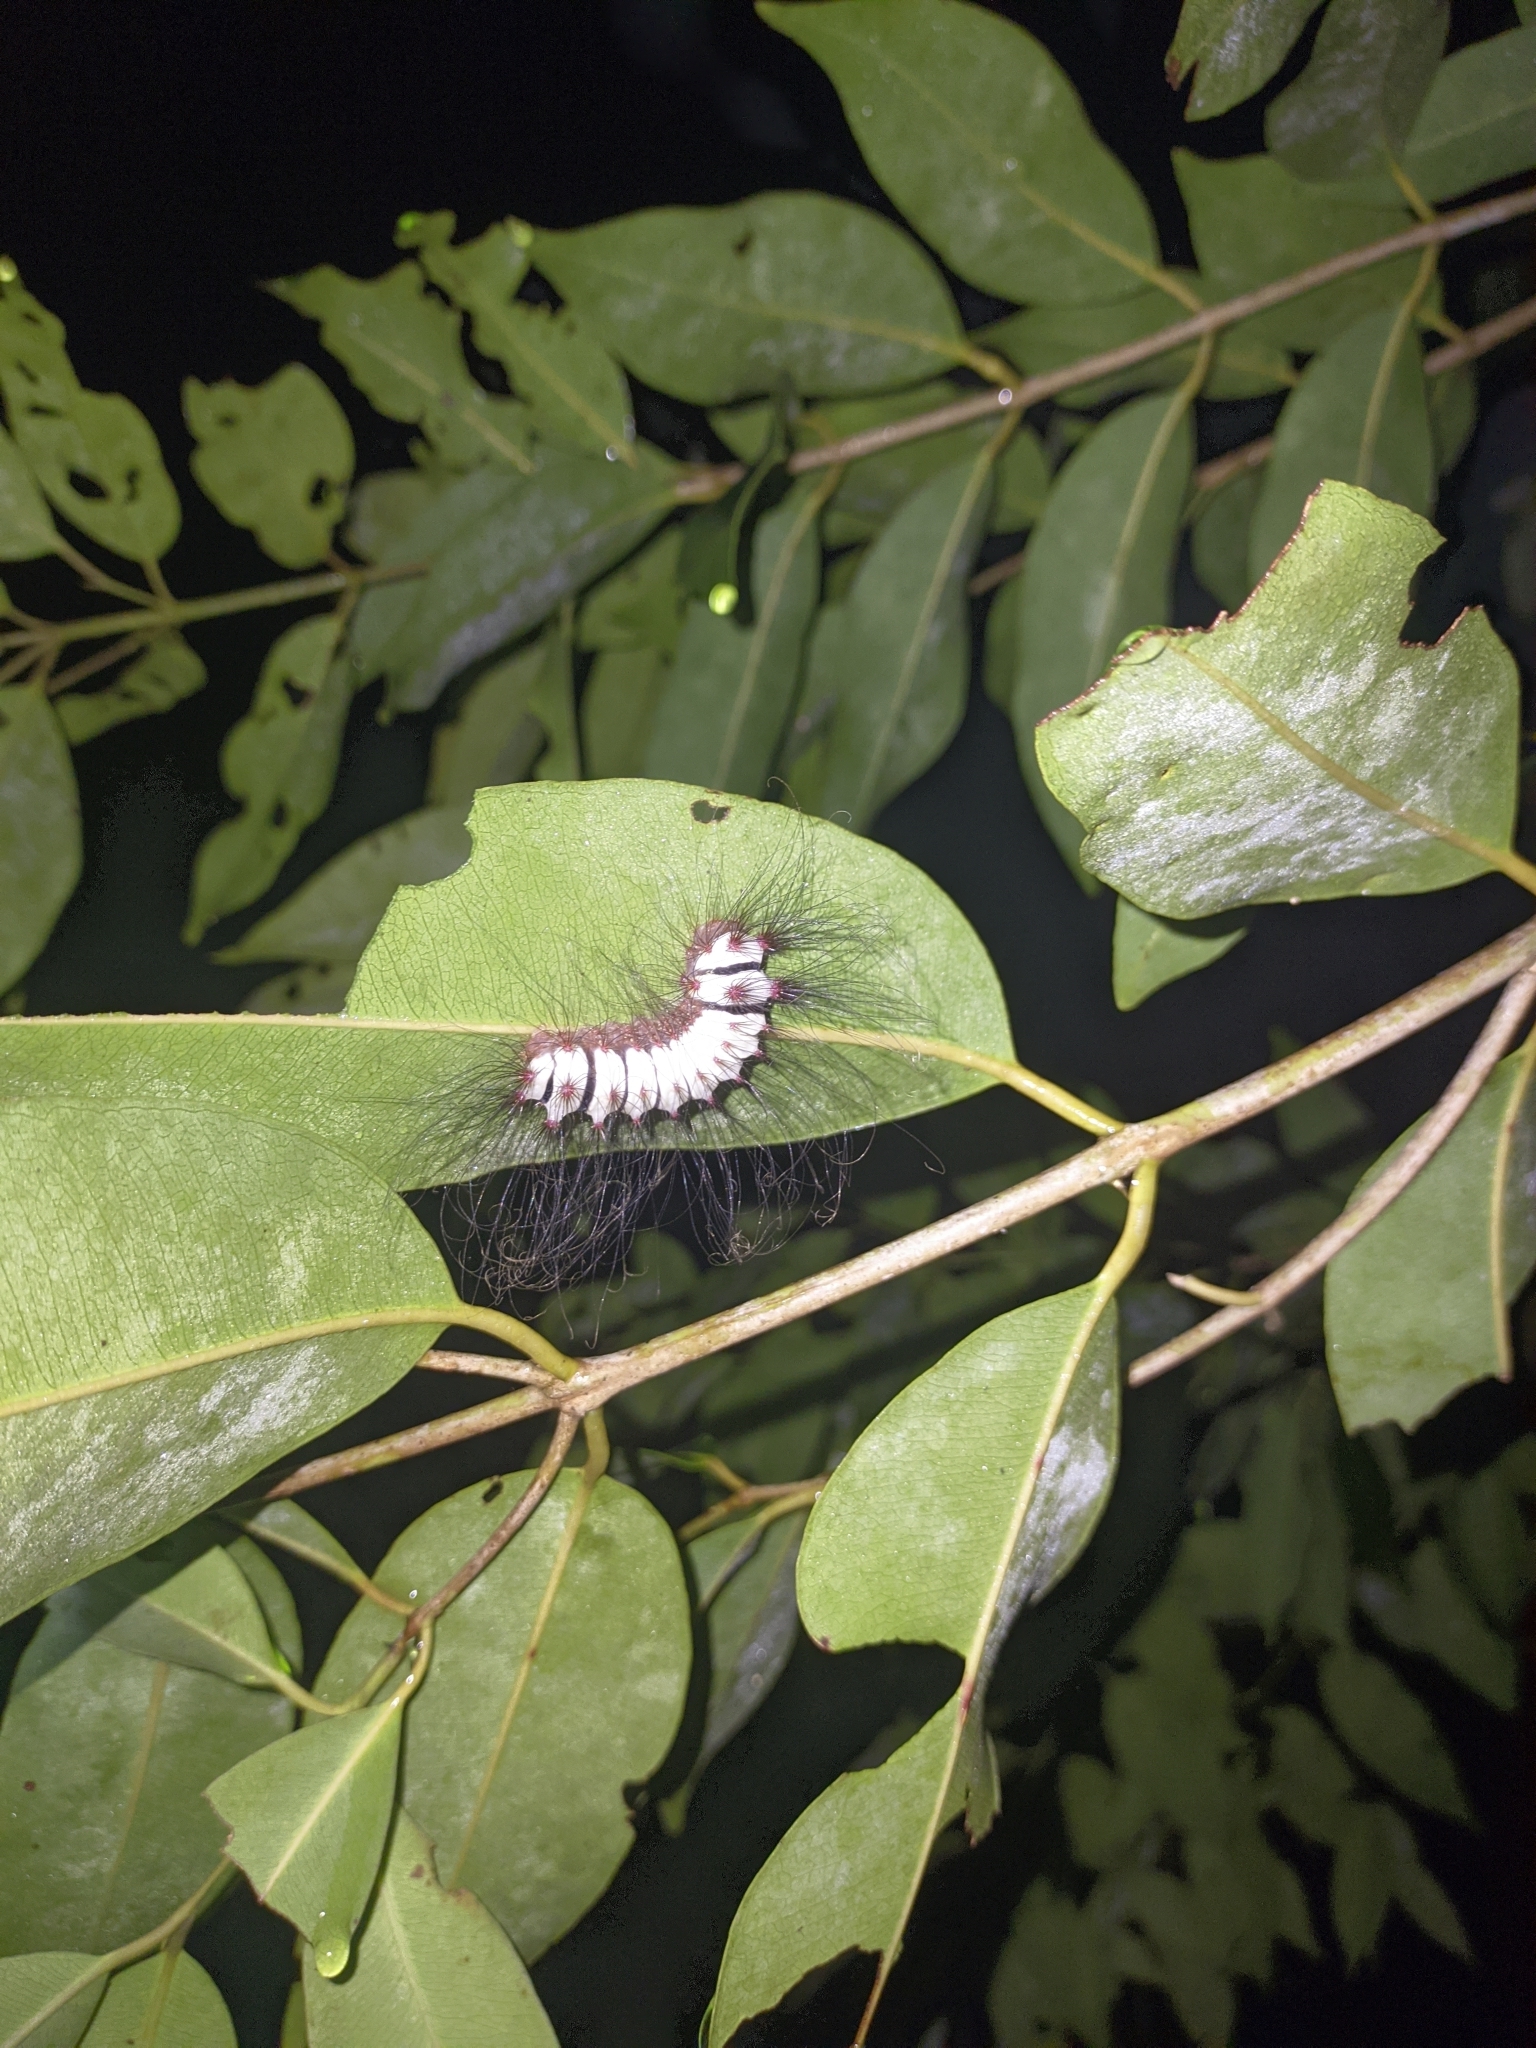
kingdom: Animalia
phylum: Arthropoda
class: Insecta
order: Lepidoptera
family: Megalopygidae
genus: Megalopyge
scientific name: Megalopyge lanata
